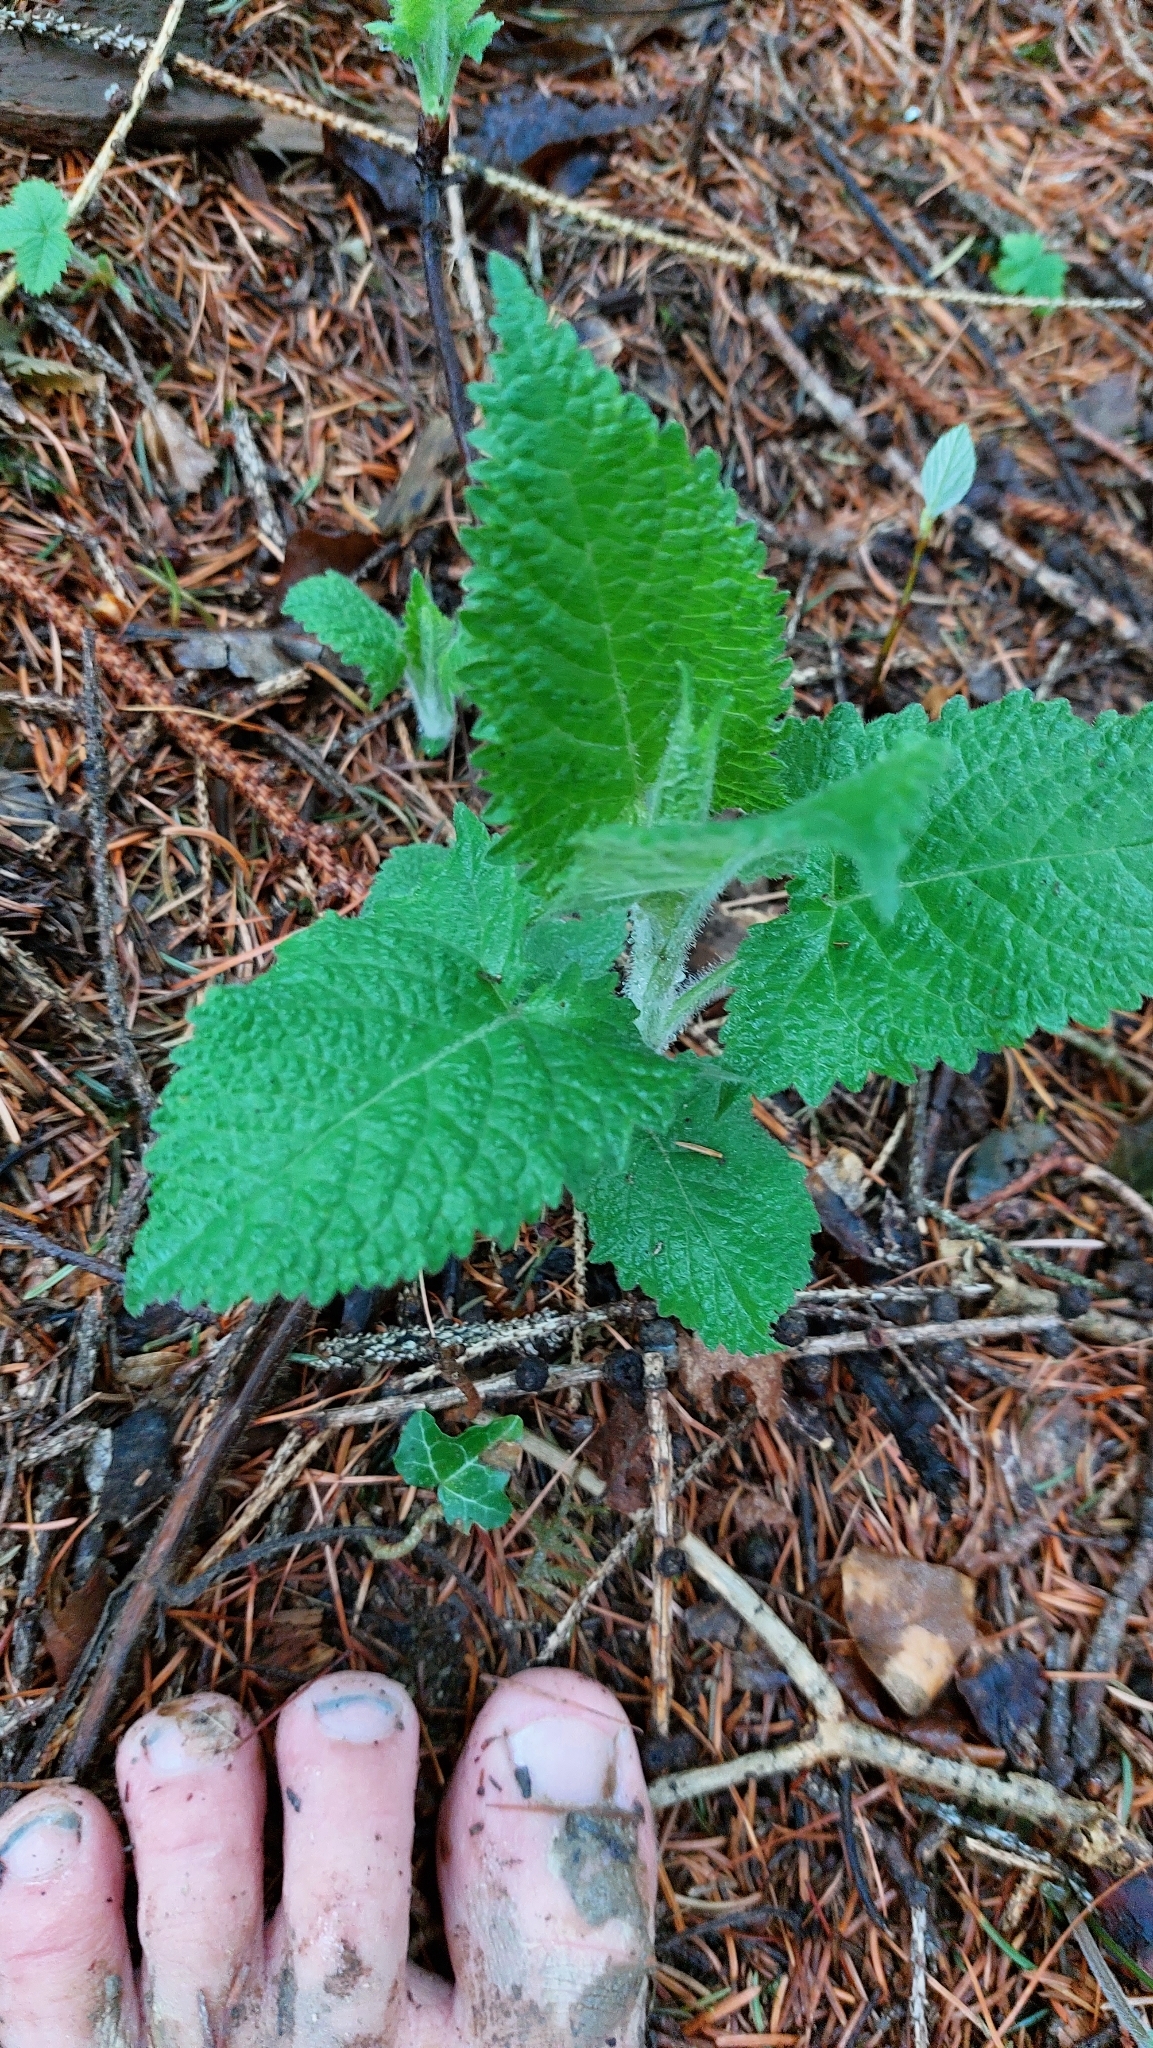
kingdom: Plantae
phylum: Tracheophyta
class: Magnoliopsida
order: Lamiales
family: Lamiaceae
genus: Salvia
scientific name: Salvia glutinosa
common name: Sticky clary
